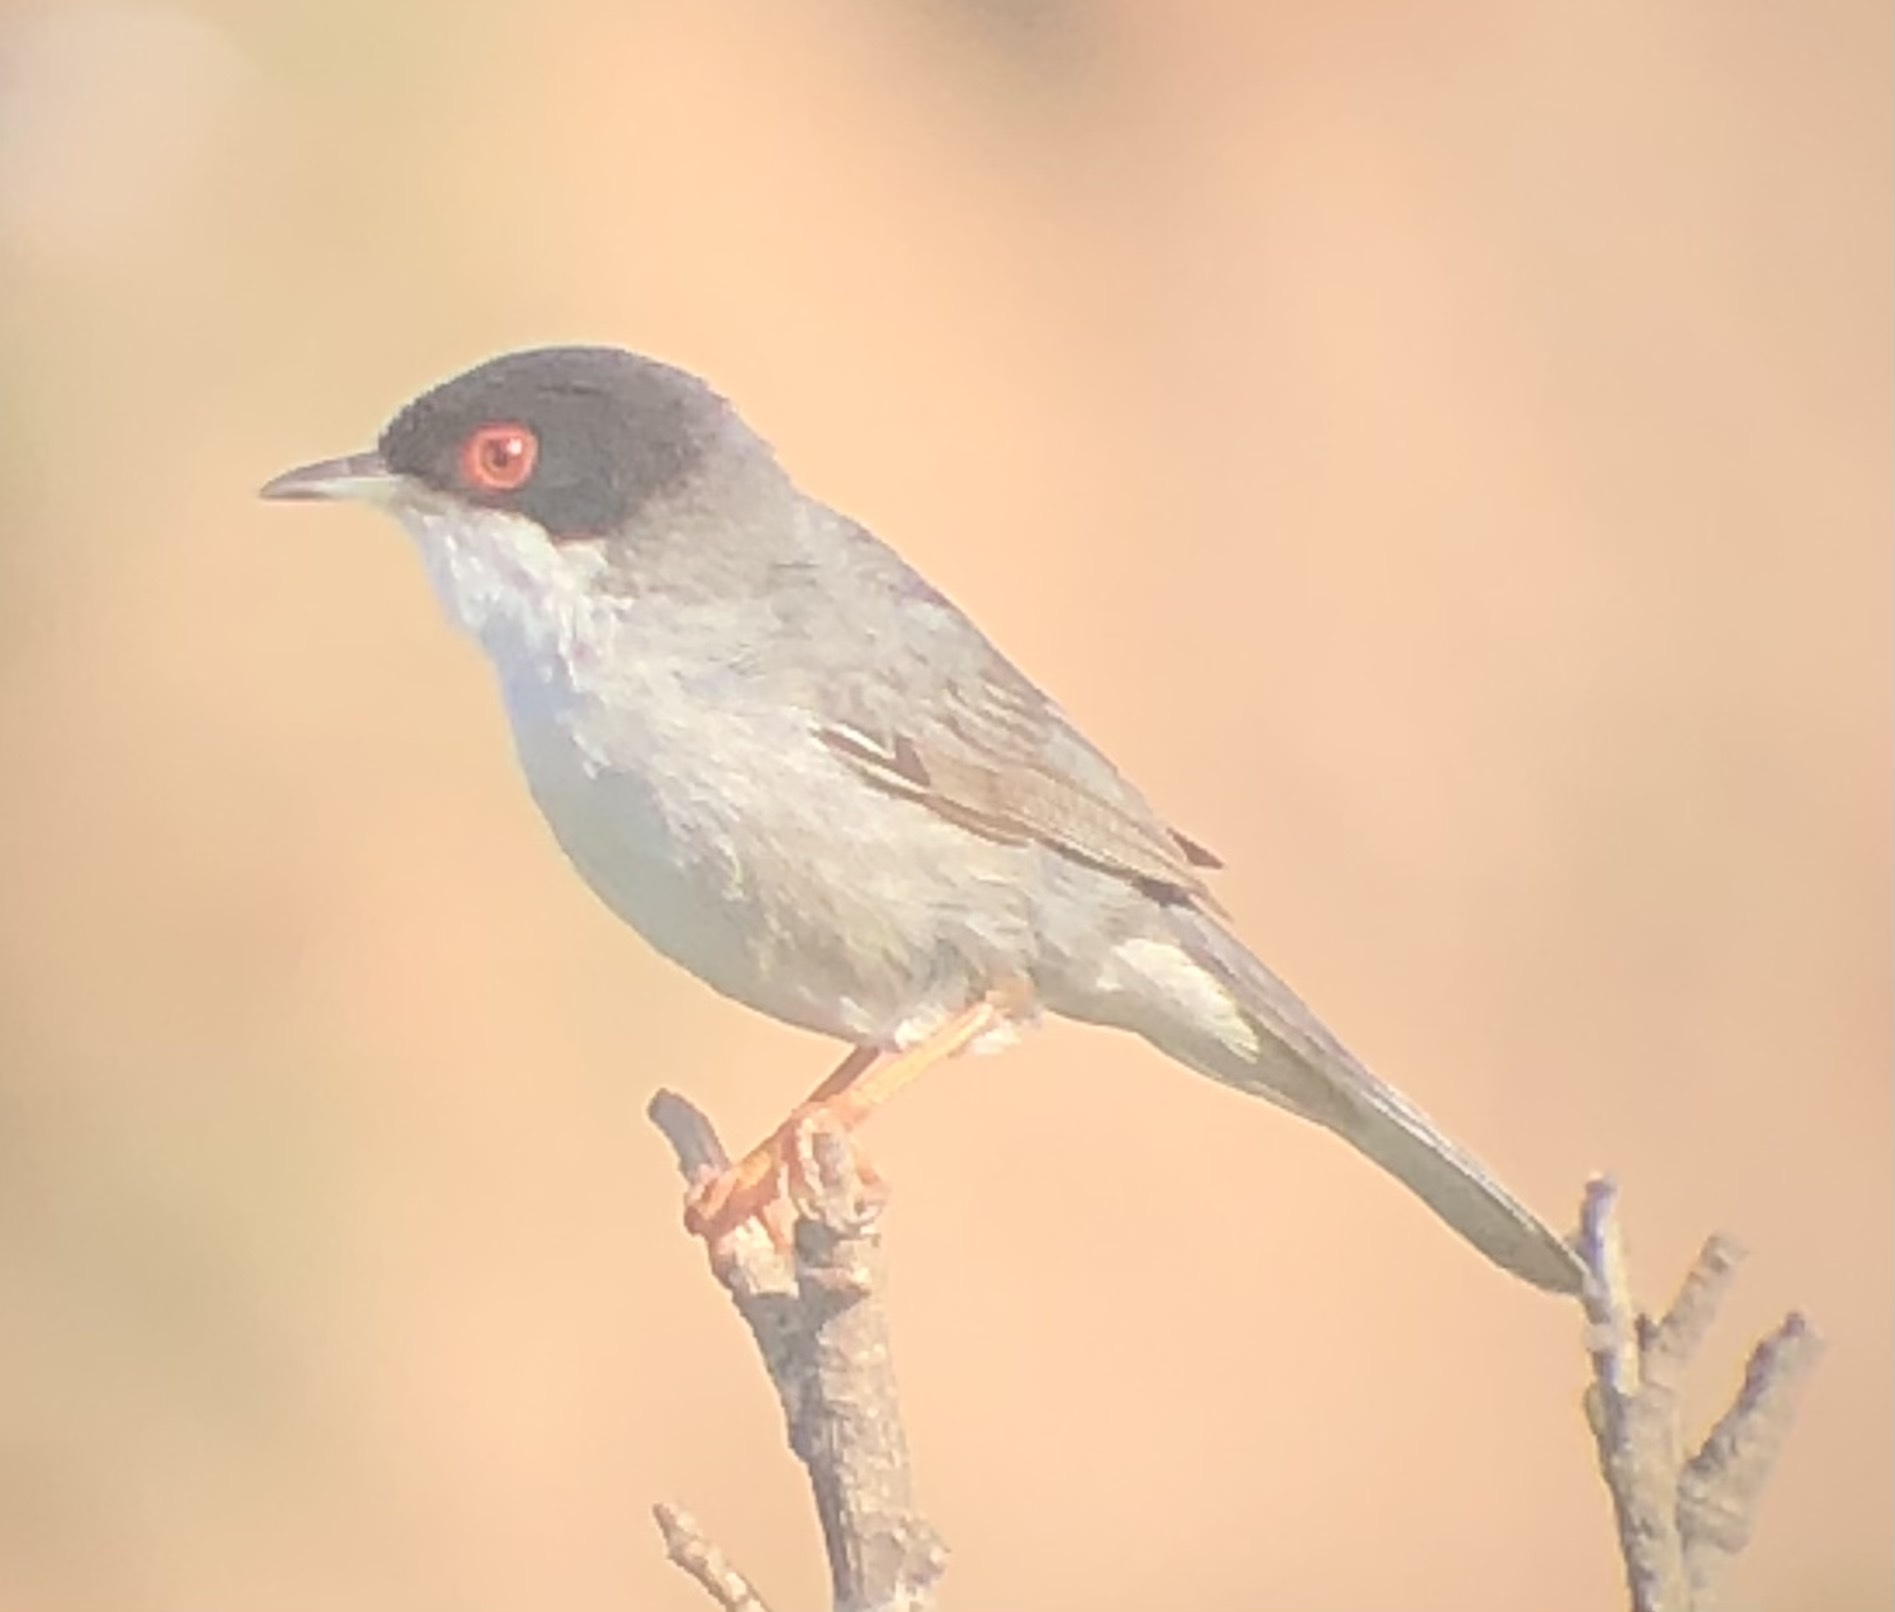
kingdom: Animalia
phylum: Chordata
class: Aves
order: Passeriformes
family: Sylviidae
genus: Curruca
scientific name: Curruca melanocephala
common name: Sardinian warbler
